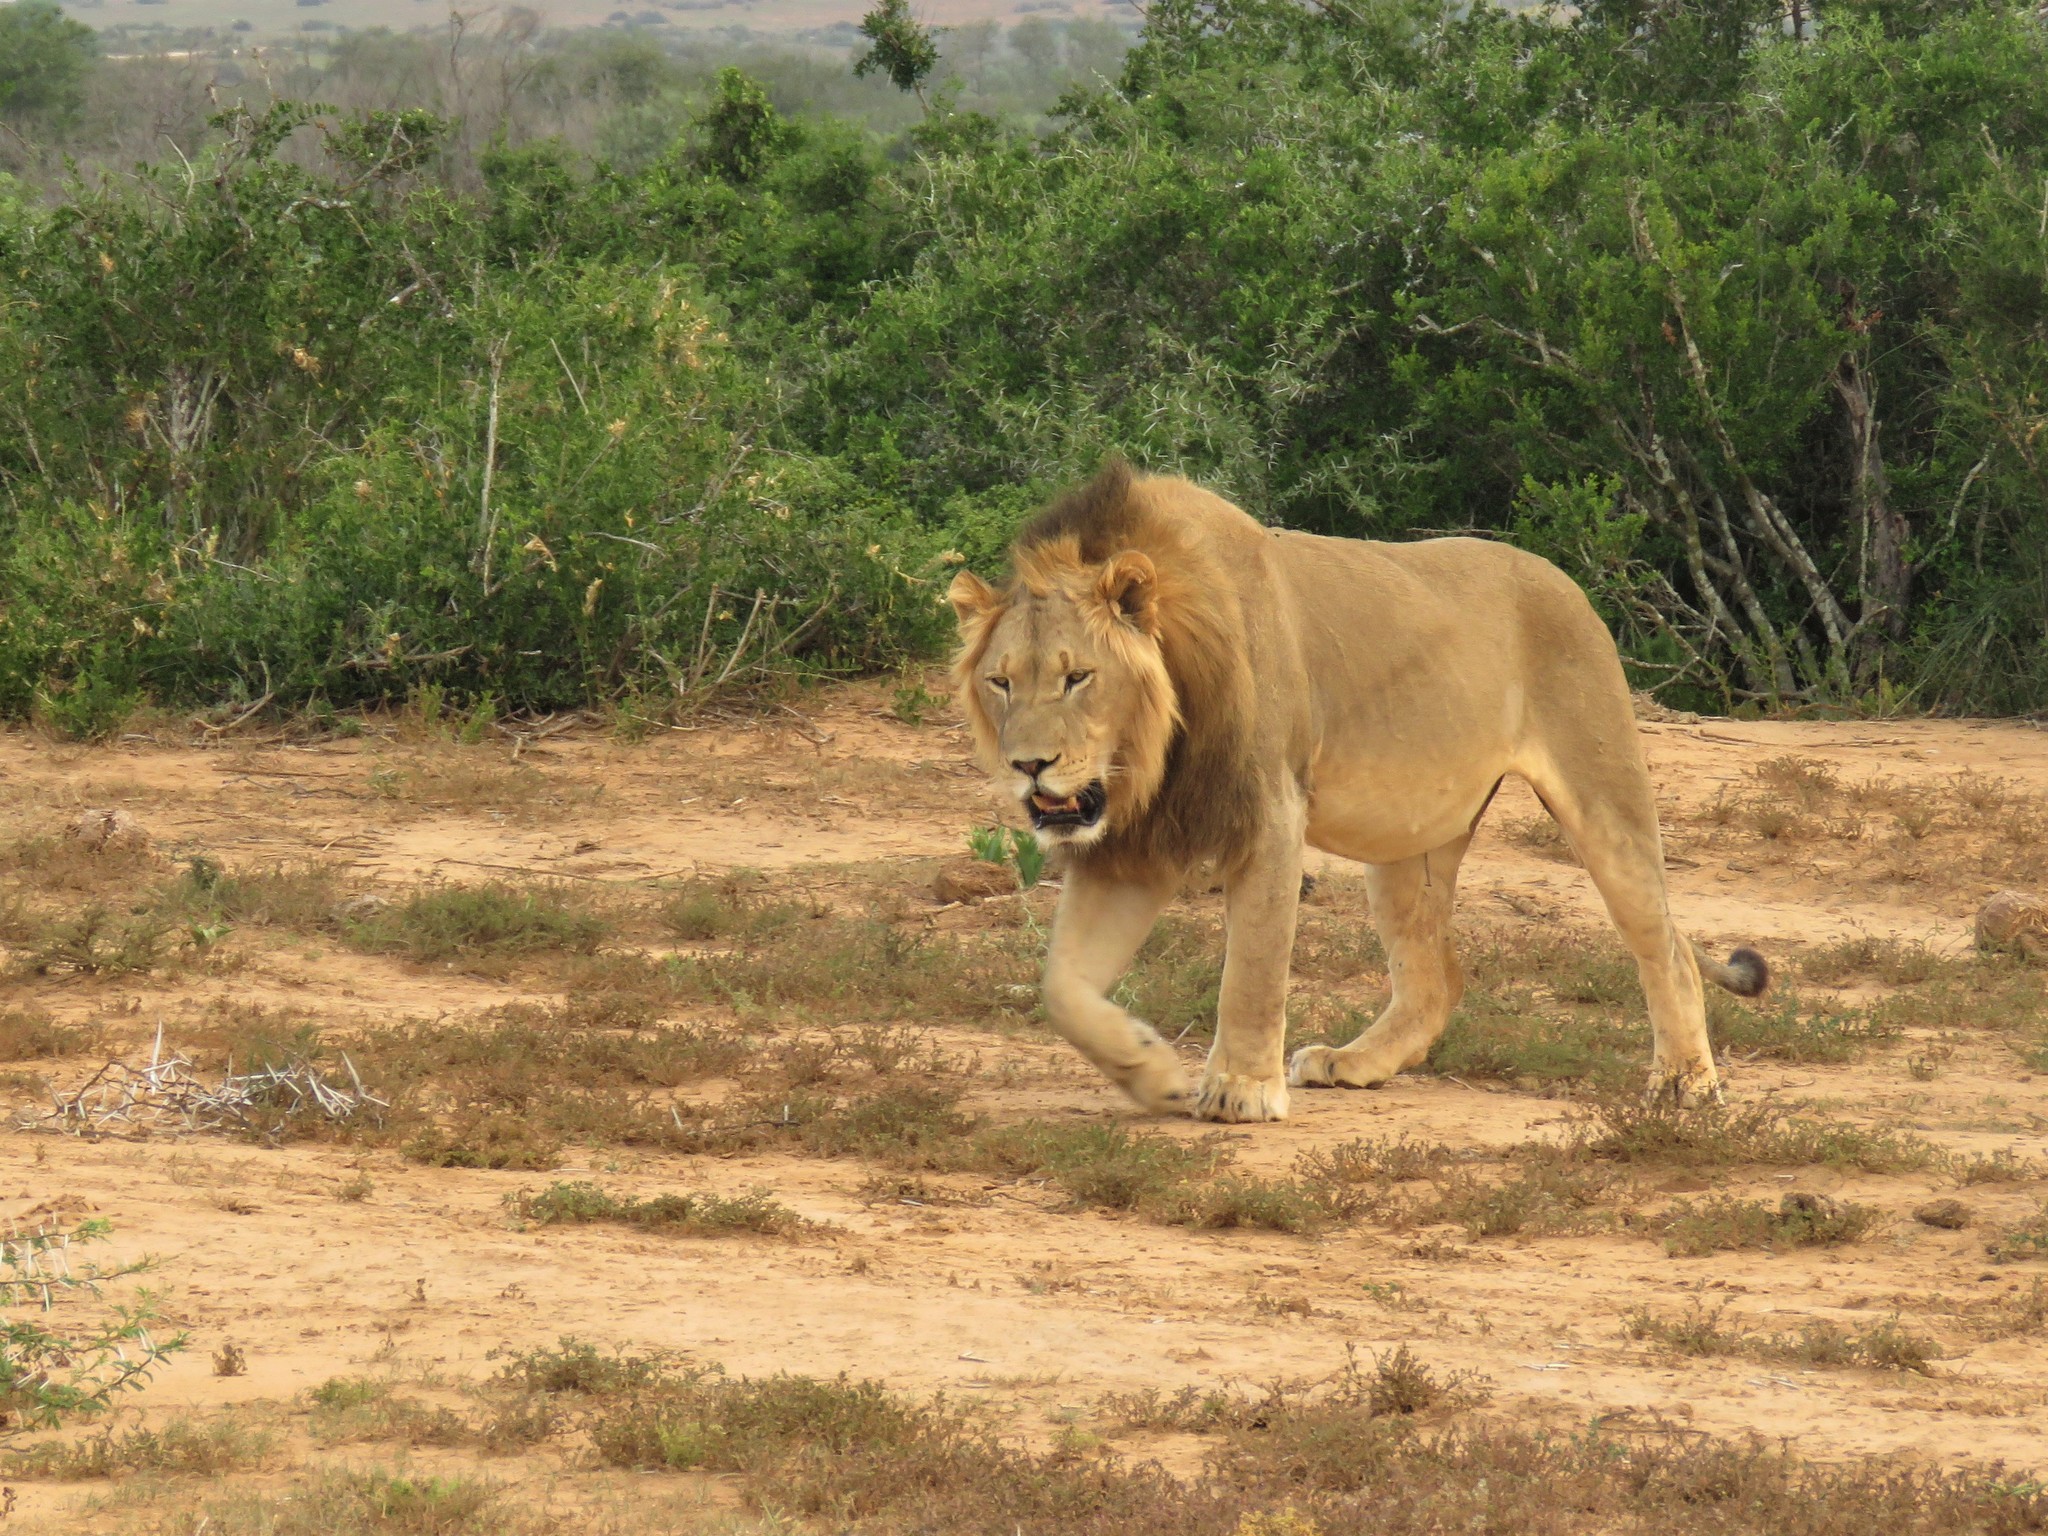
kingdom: Animalia
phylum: Chordata
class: Mammalia
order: Carnivora
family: Felidae
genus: Panthera
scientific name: Panthera leo
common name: Lion
